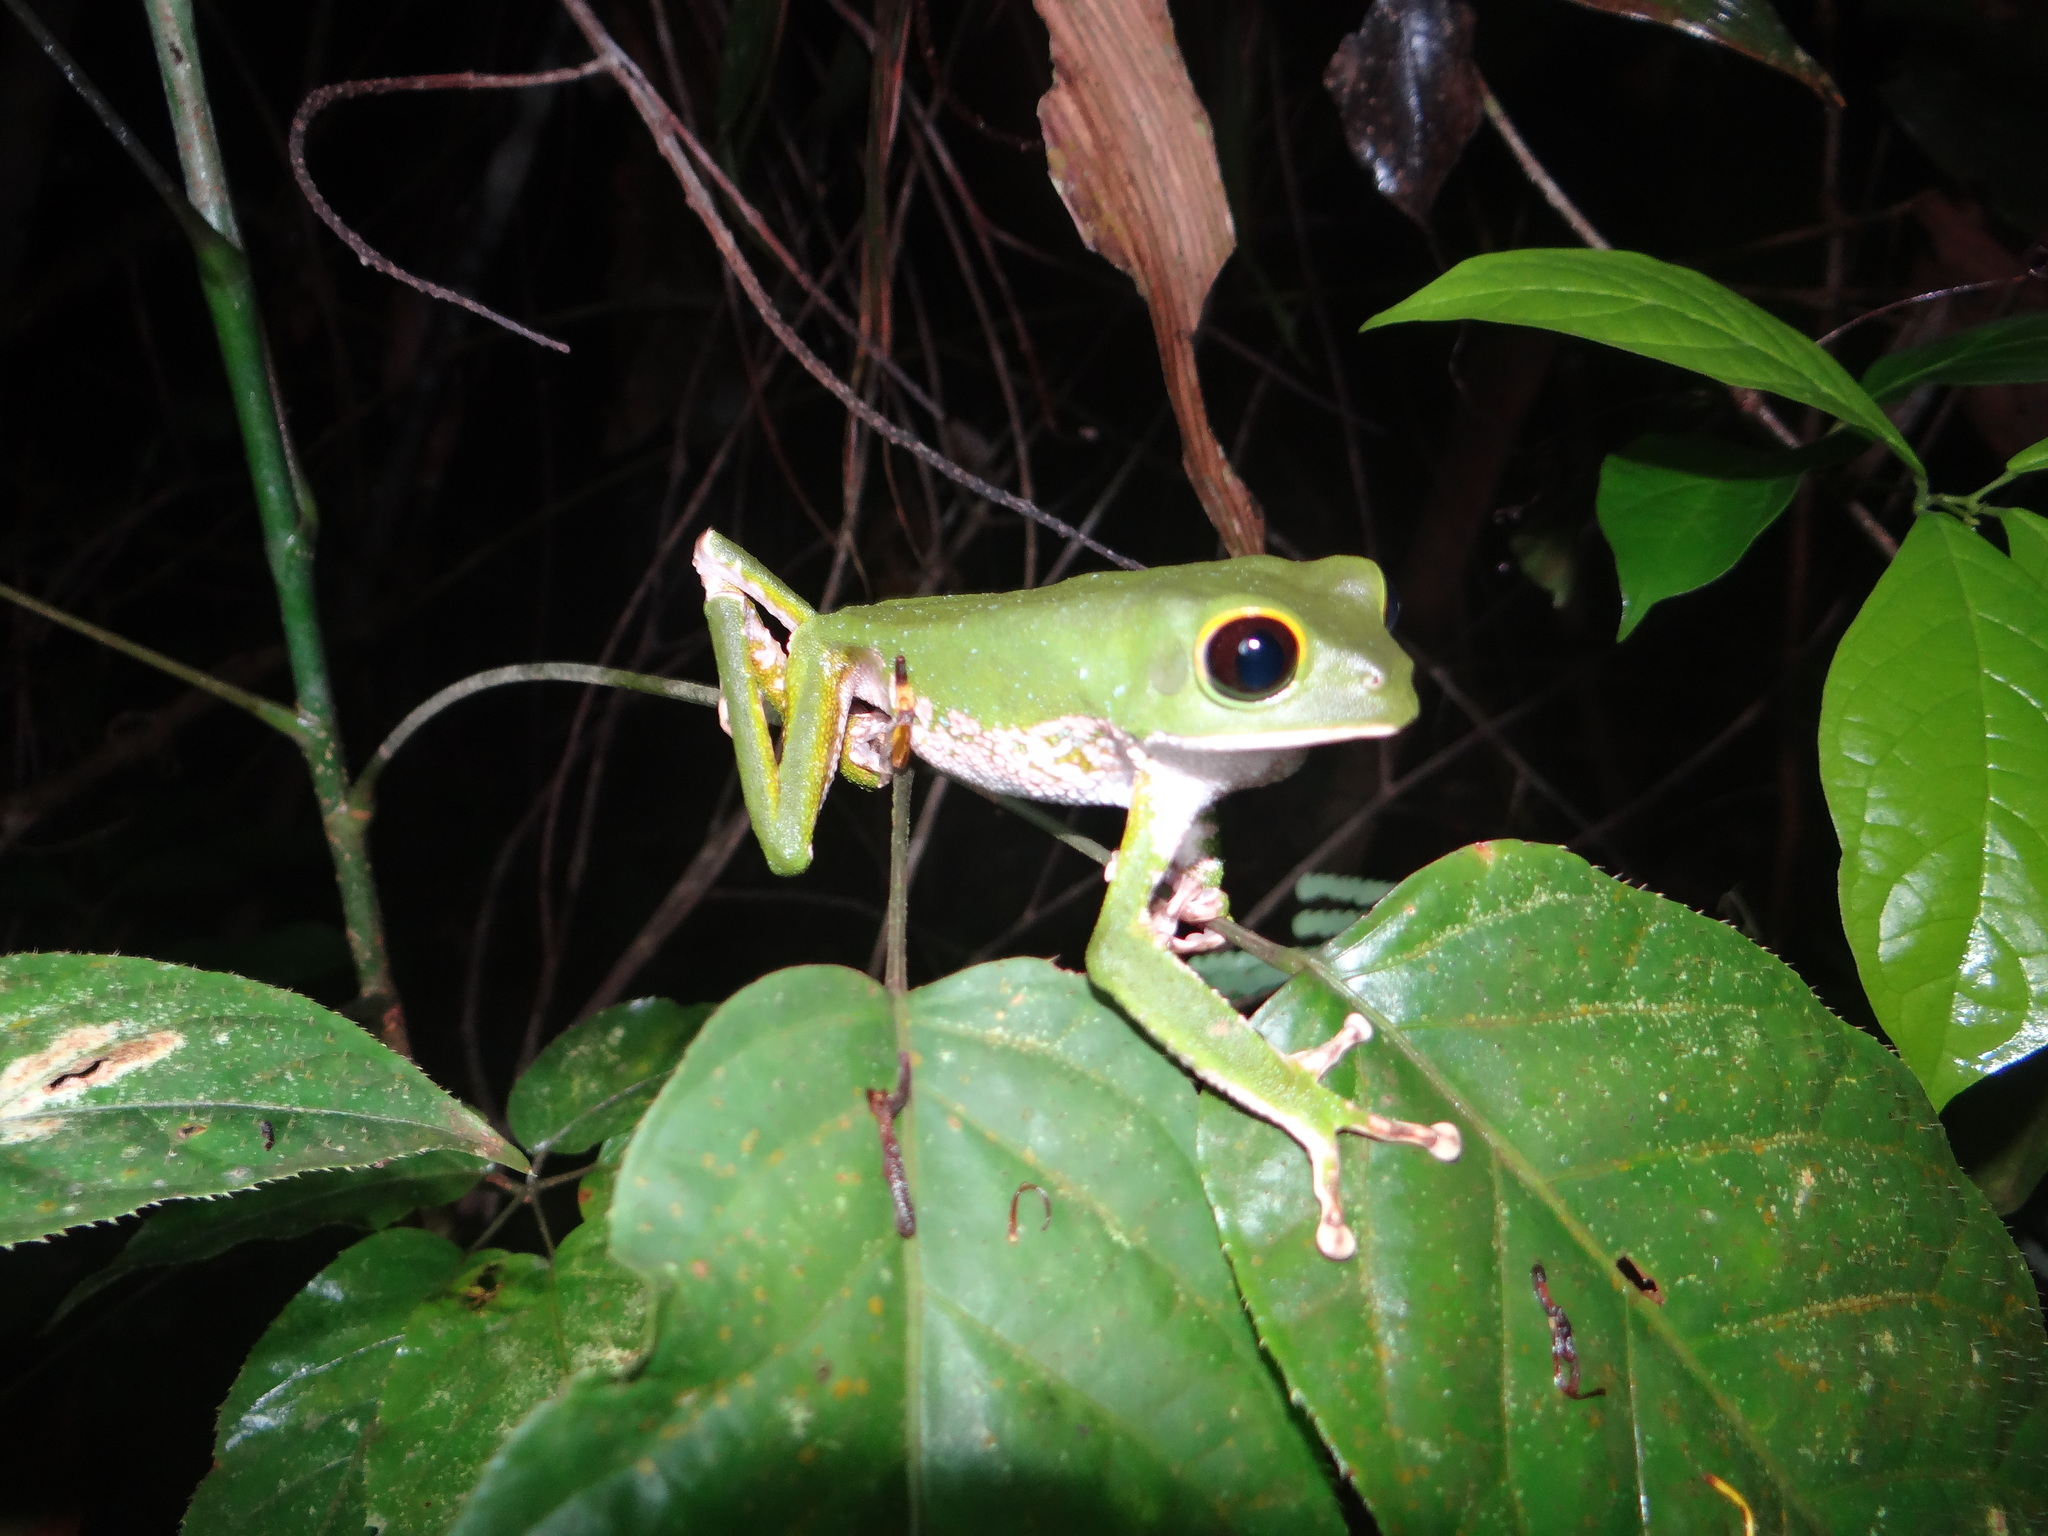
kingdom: Animalia
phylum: Chordata
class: Amphibia
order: Anura
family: Phyllomedusidae
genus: Phyllomedusa
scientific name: Phyllomedusa camba
